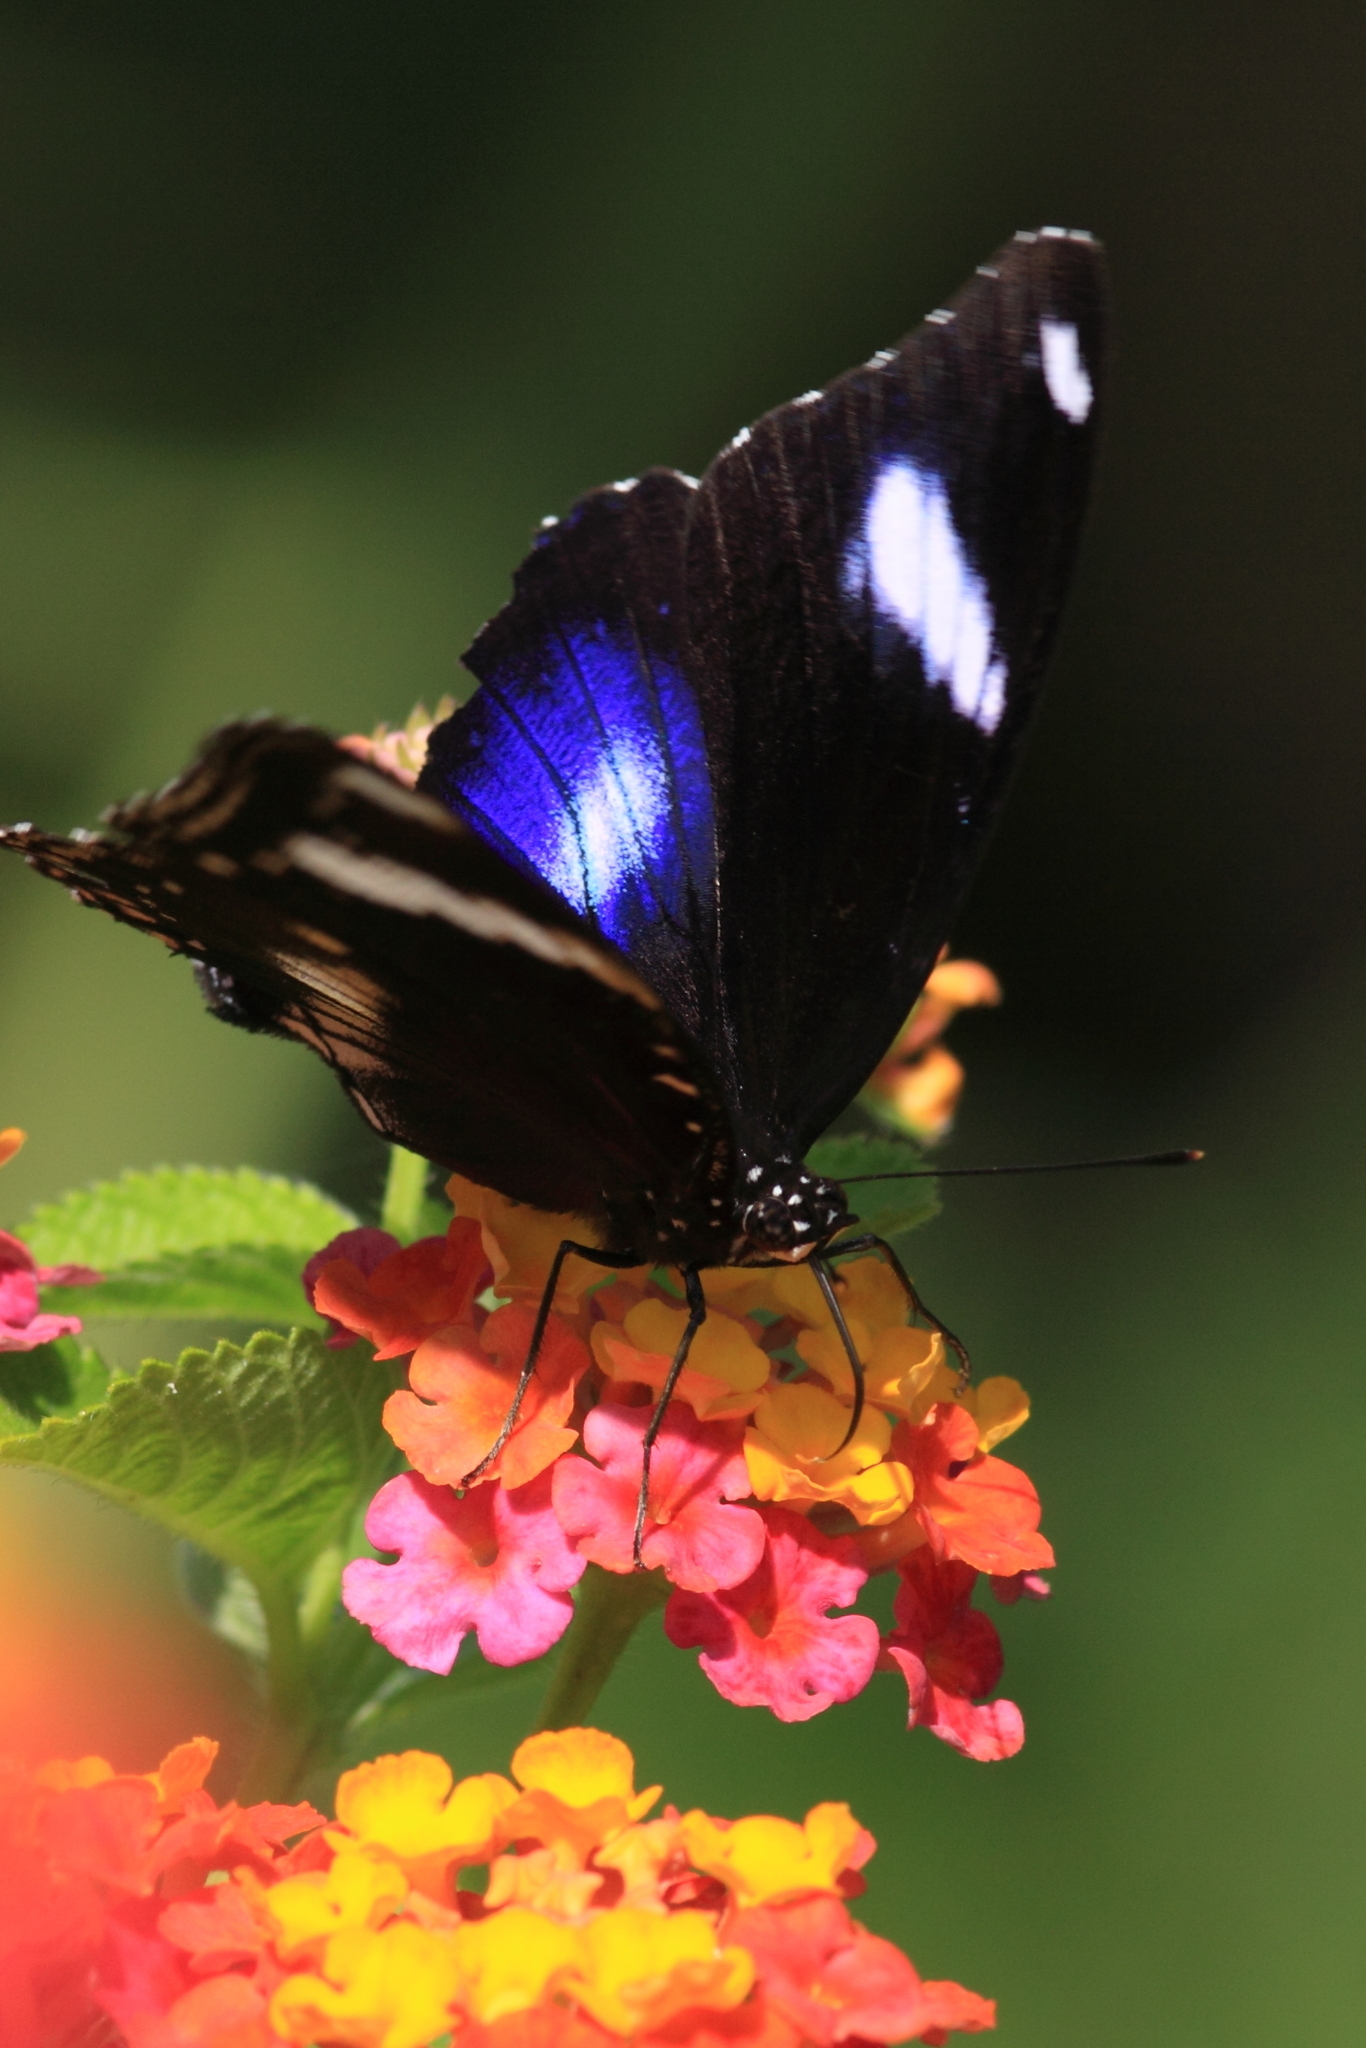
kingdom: Animalia
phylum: Arthropoda
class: Insecta
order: Lepidoptera
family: Nymphalidae
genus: Hypolimnas
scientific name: Hypolimnas bolina
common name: Great eggfly
